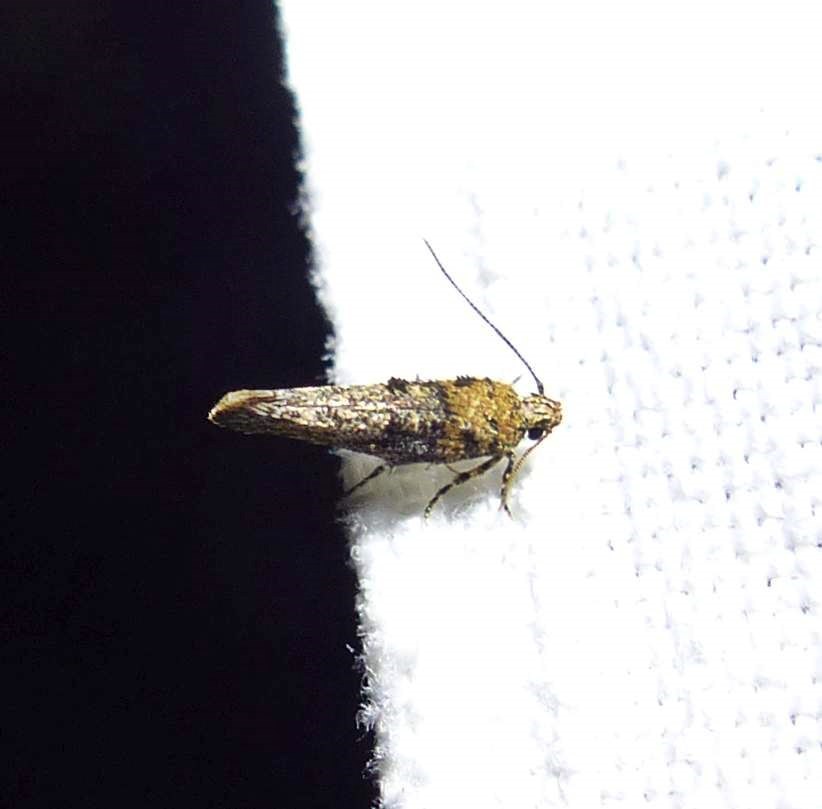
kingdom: Animalia
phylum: Arthropoda
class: Insecta
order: Lepidoptera
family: Gelechiidae
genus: Agnippe
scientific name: Agnippe biscolorella
